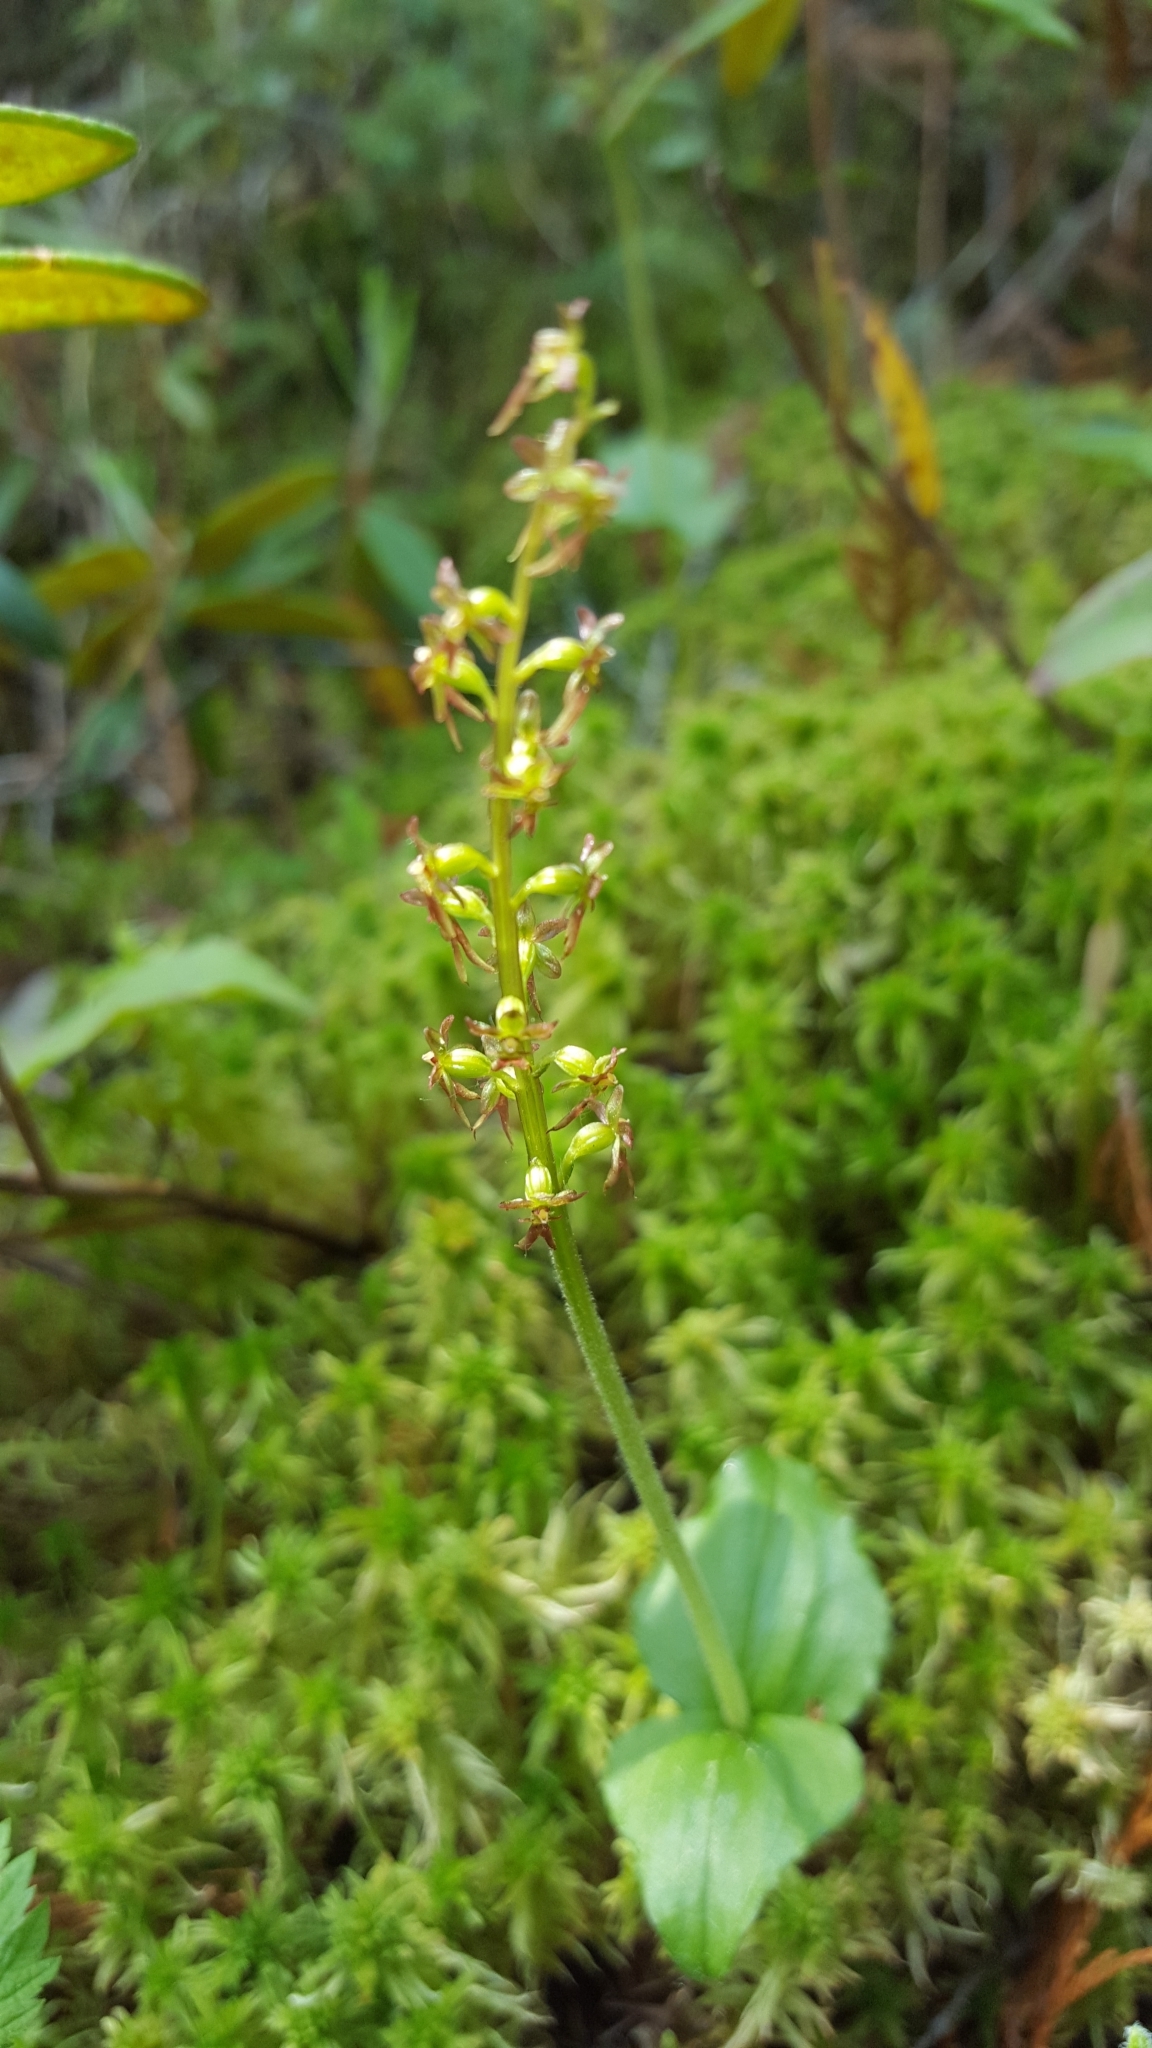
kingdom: Plantae
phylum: Tracheophyta
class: Liliopsida
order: Asparagales
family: Orchidaceae
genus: Neottia
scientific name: Neottia cordata
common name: Lesser twayblade
